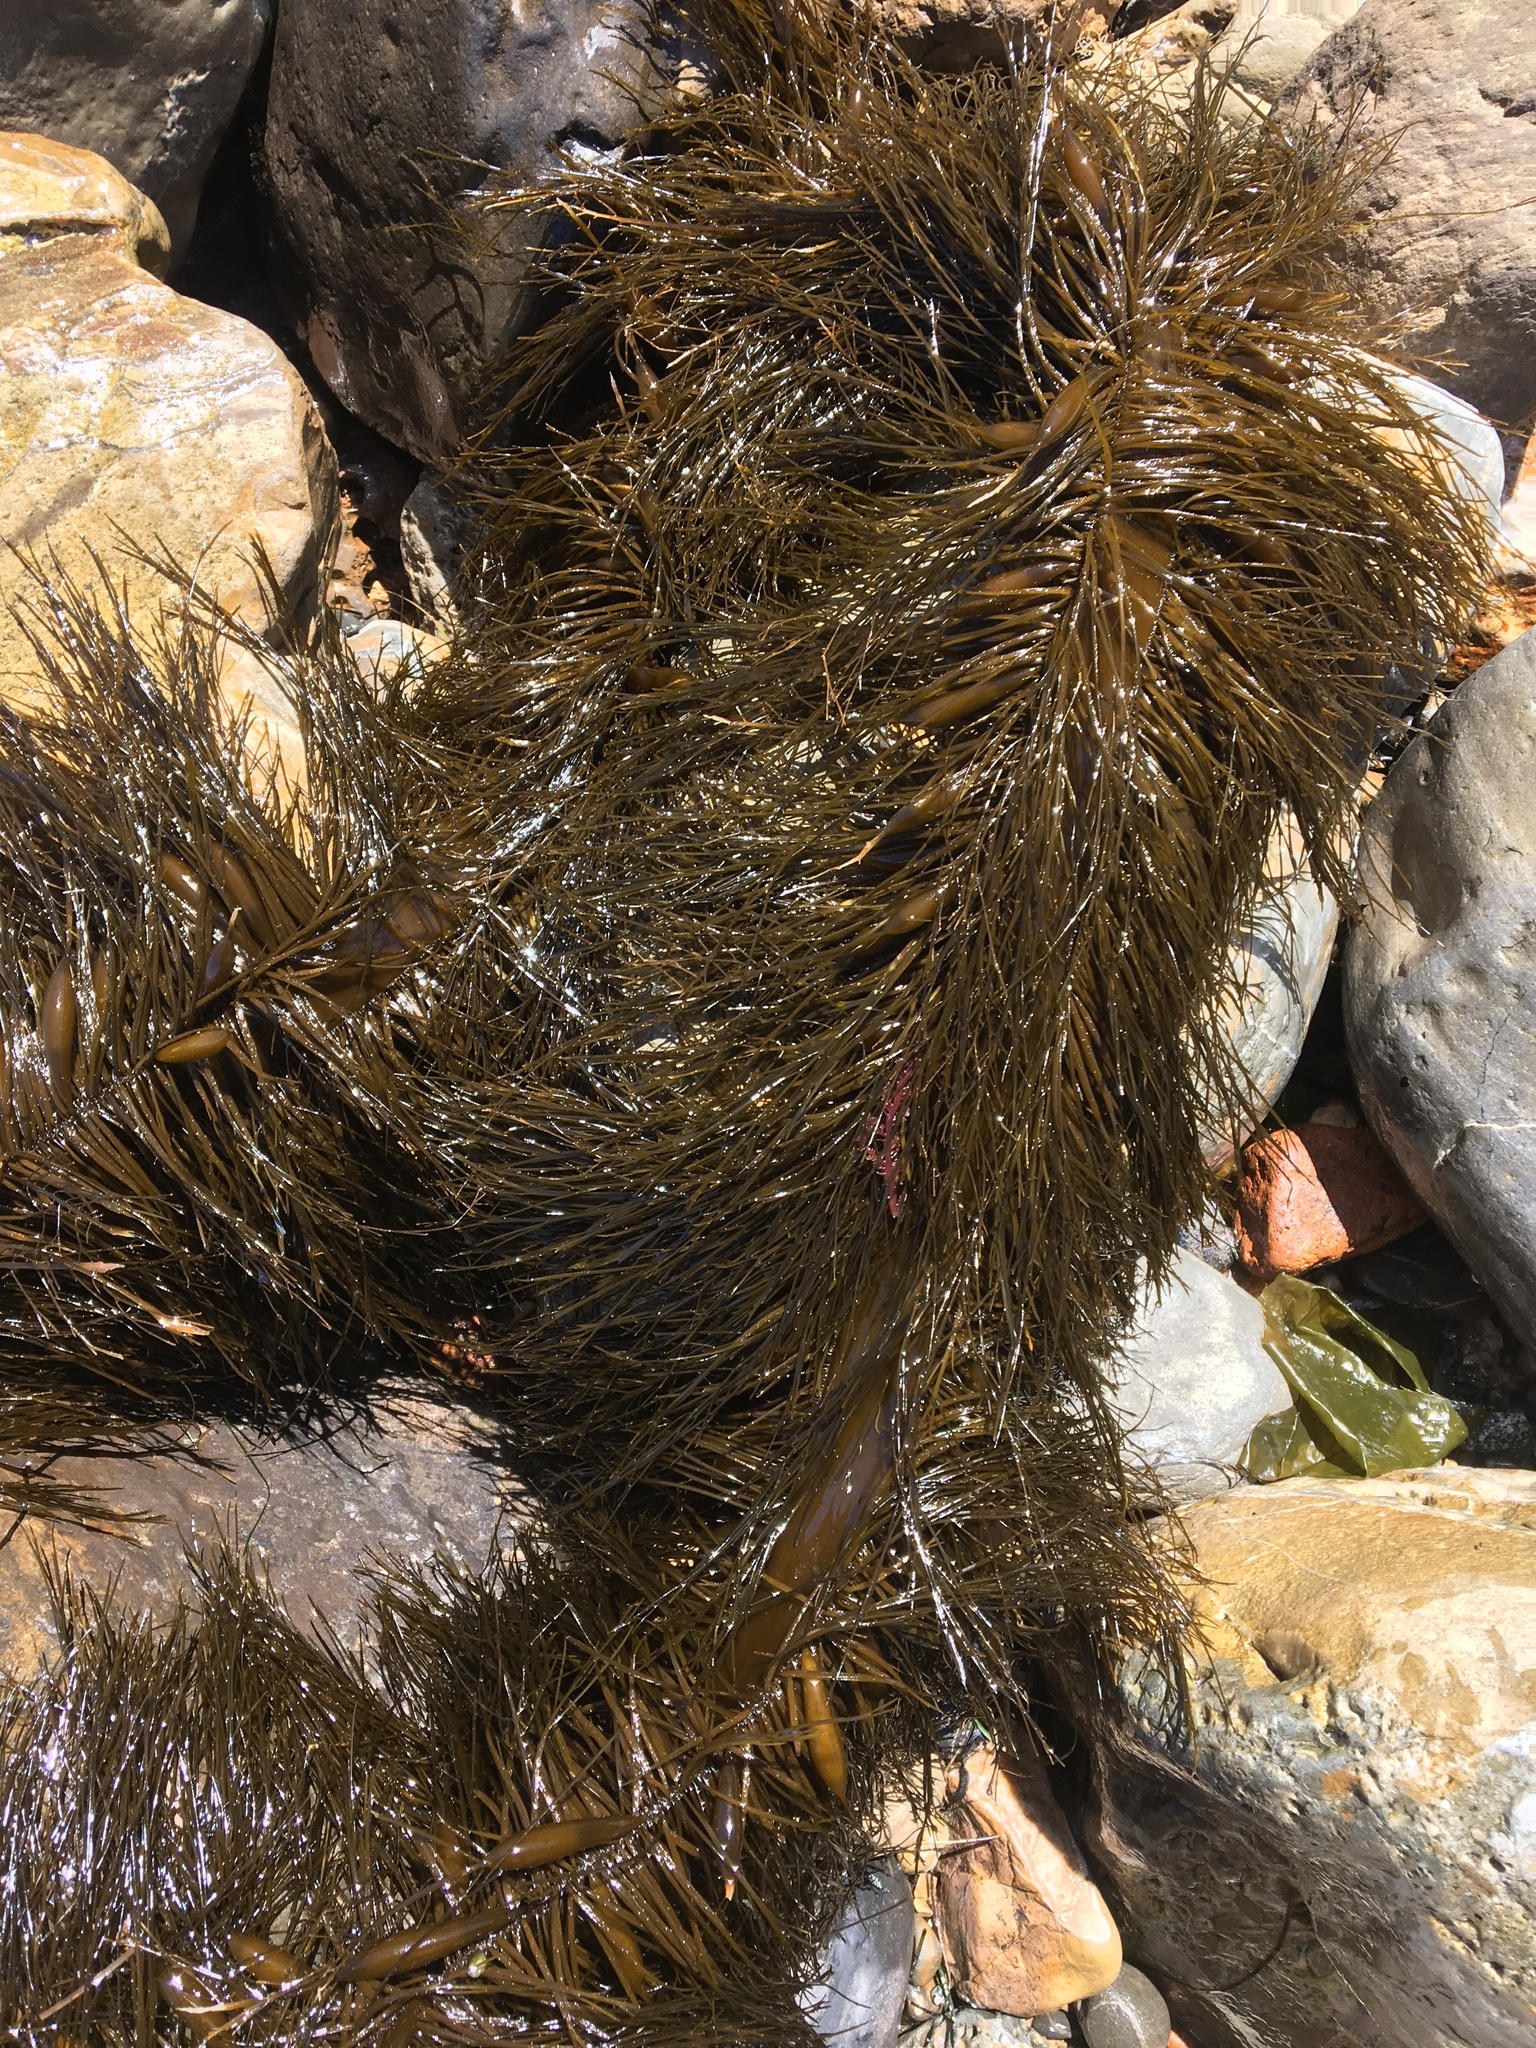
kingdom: Chromista
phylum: Ochrophyta
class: Phaeophyceae
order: Laminariales
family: Lessoniaceae
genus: Egregia
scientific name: Egregia menziesii
